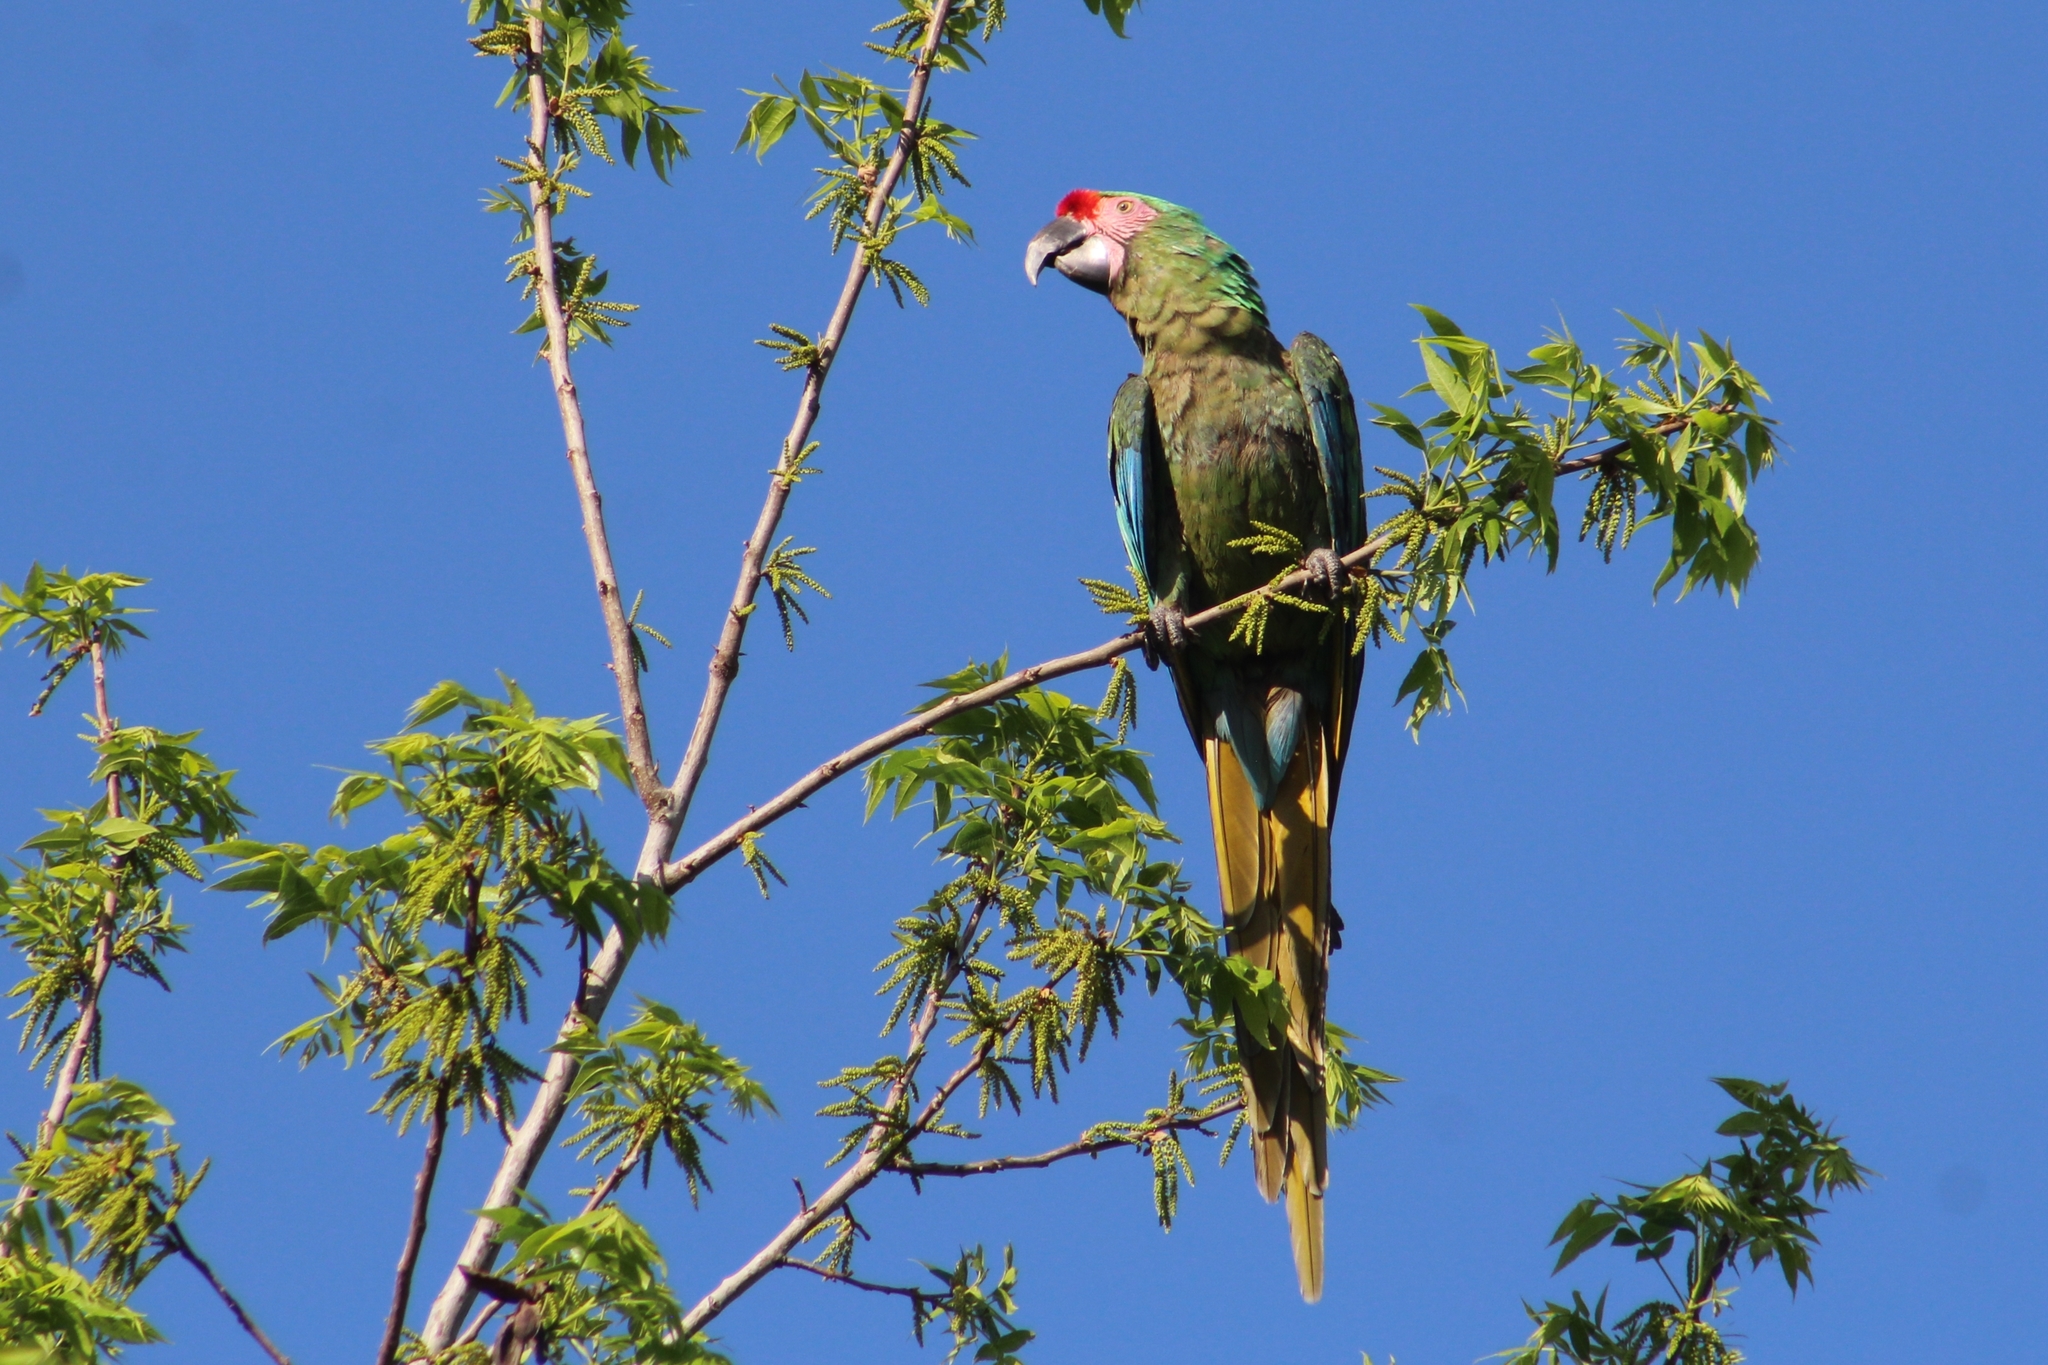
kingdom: Animalia
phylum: Chordata
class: Aves
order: Psittaciformes
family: Psittacidae
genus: Ara
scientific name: Ara militaris
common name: Military macaw
